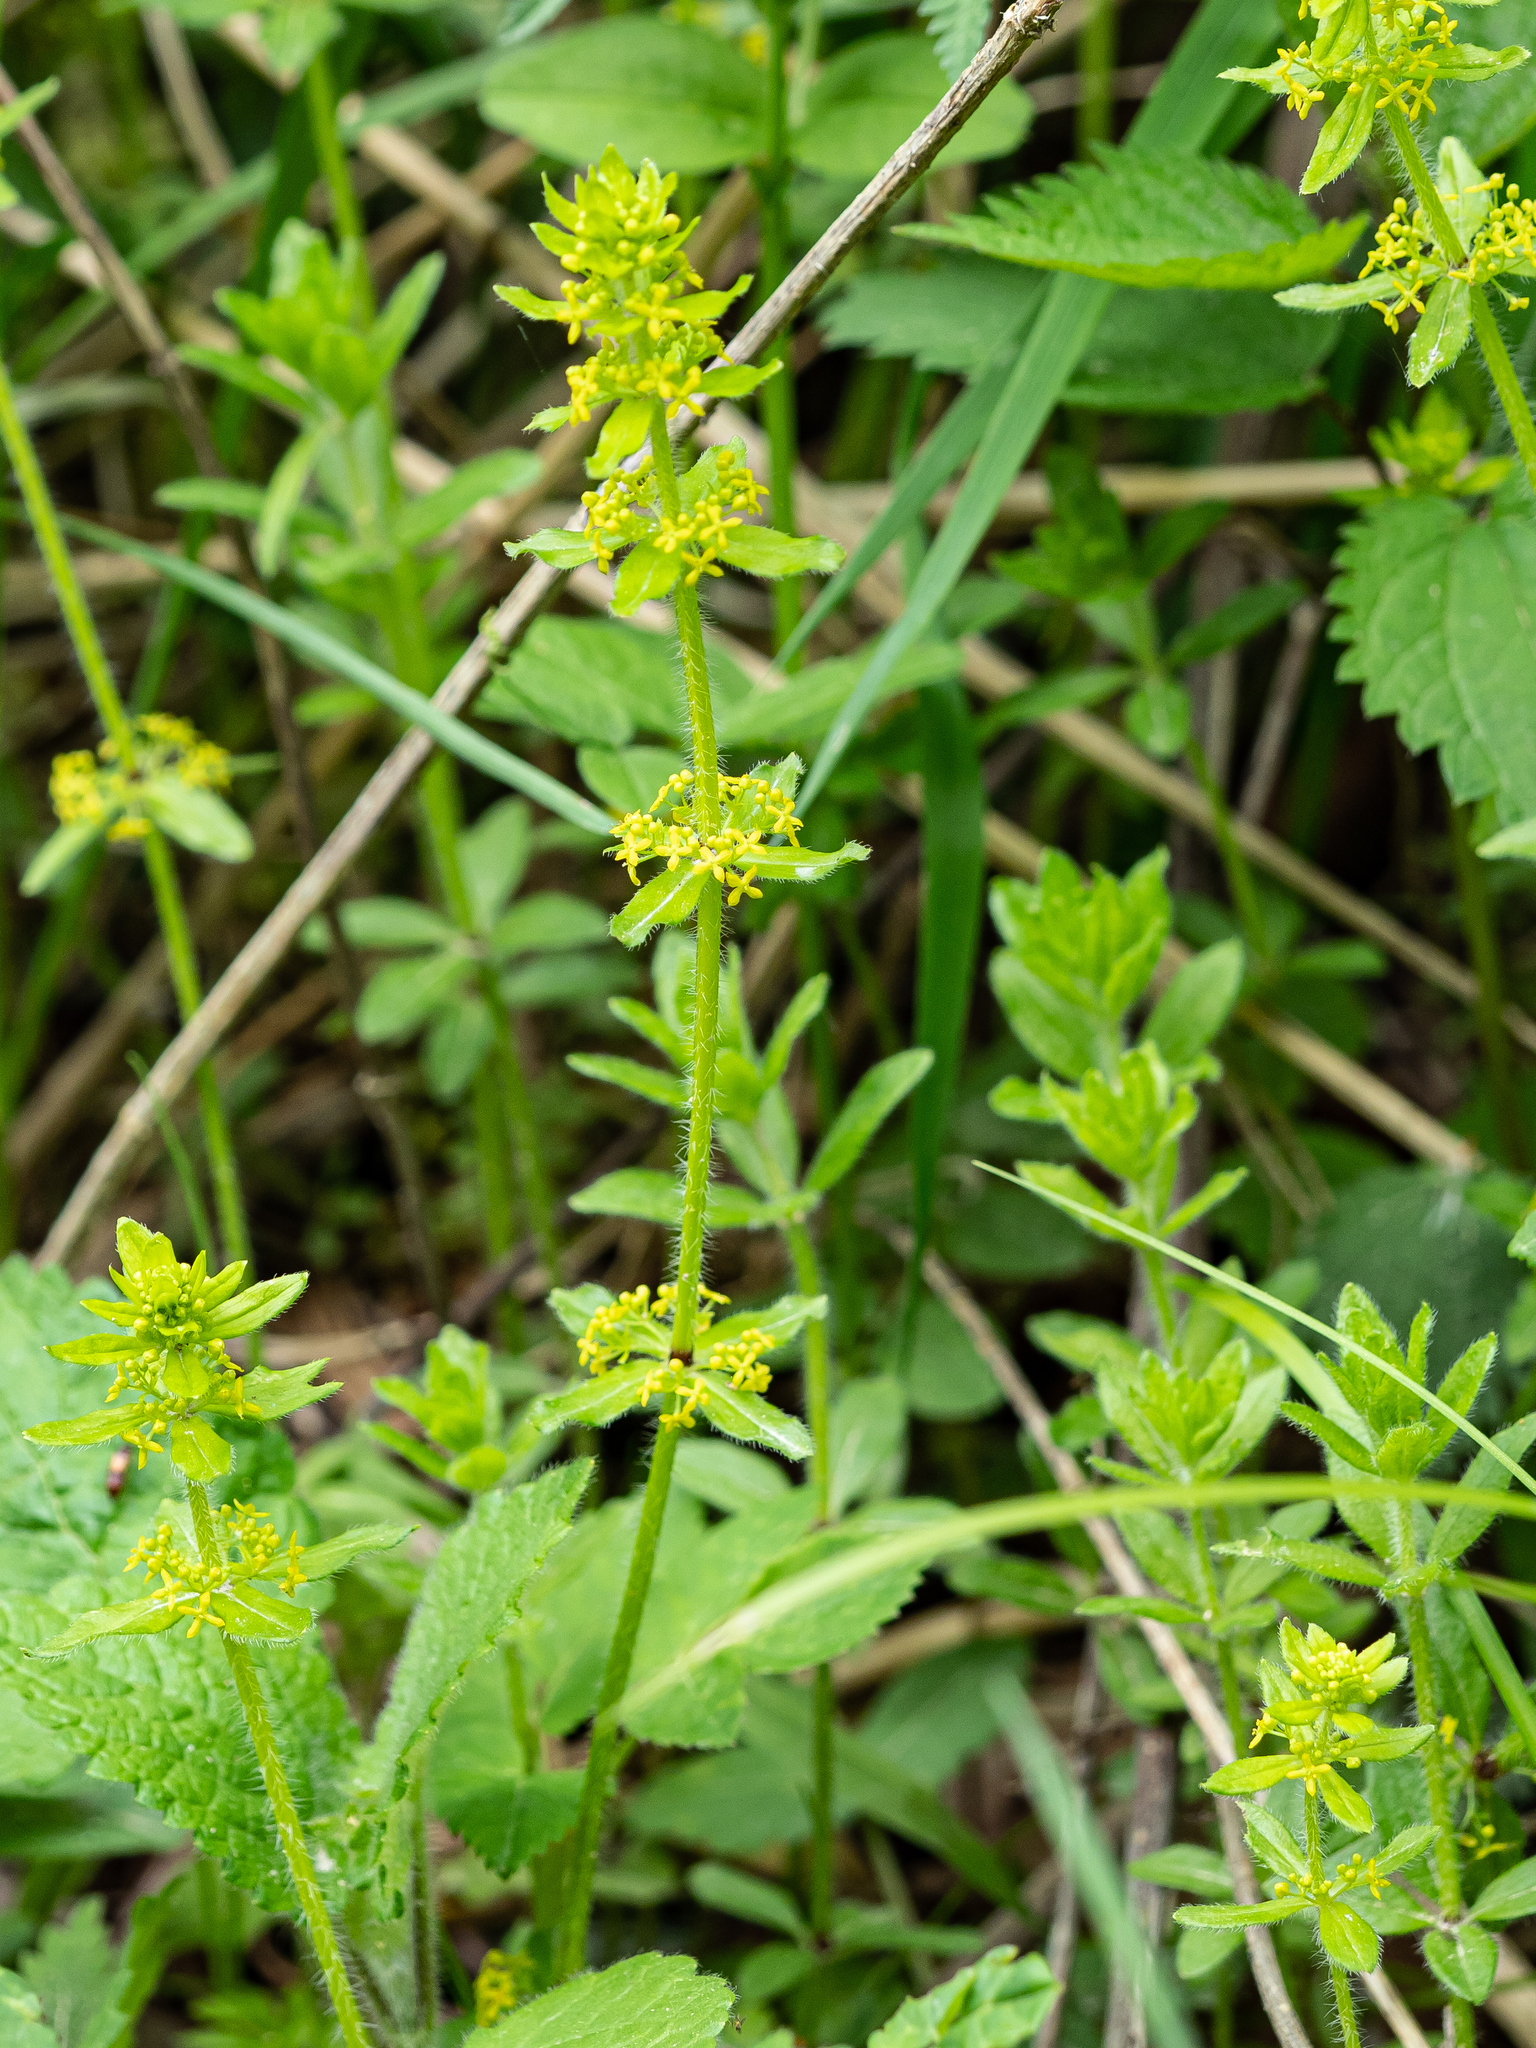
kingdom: Plantae
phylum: Tracheophyta
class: Magnoliopsida
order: Gentianales
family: Rubiaceae
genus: Cruciata
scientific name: Cruciata laevipes
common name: Crosswort
